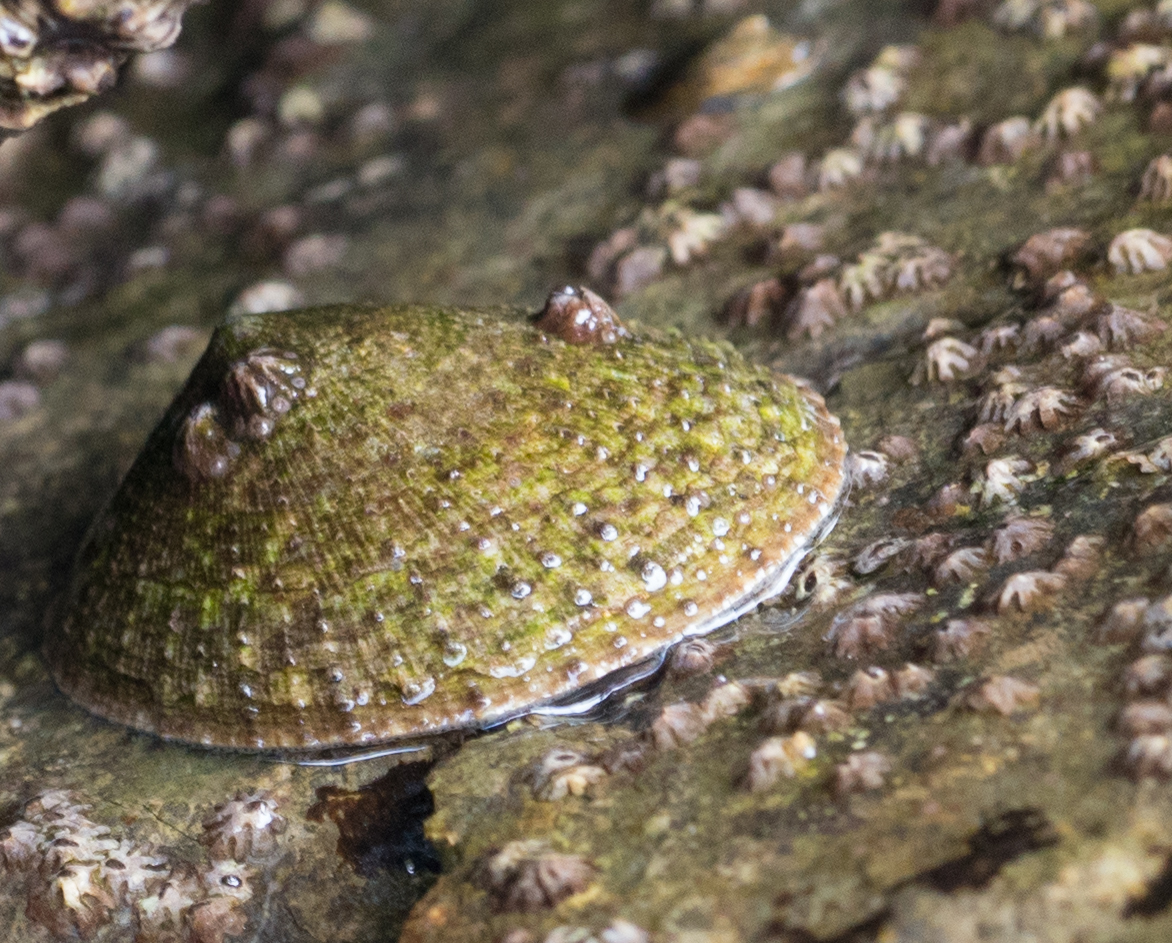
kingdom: Animalia
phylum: Mollusca
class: Gastropoda
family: Lottiidae
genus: Lottia
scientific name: Lottia limatula
